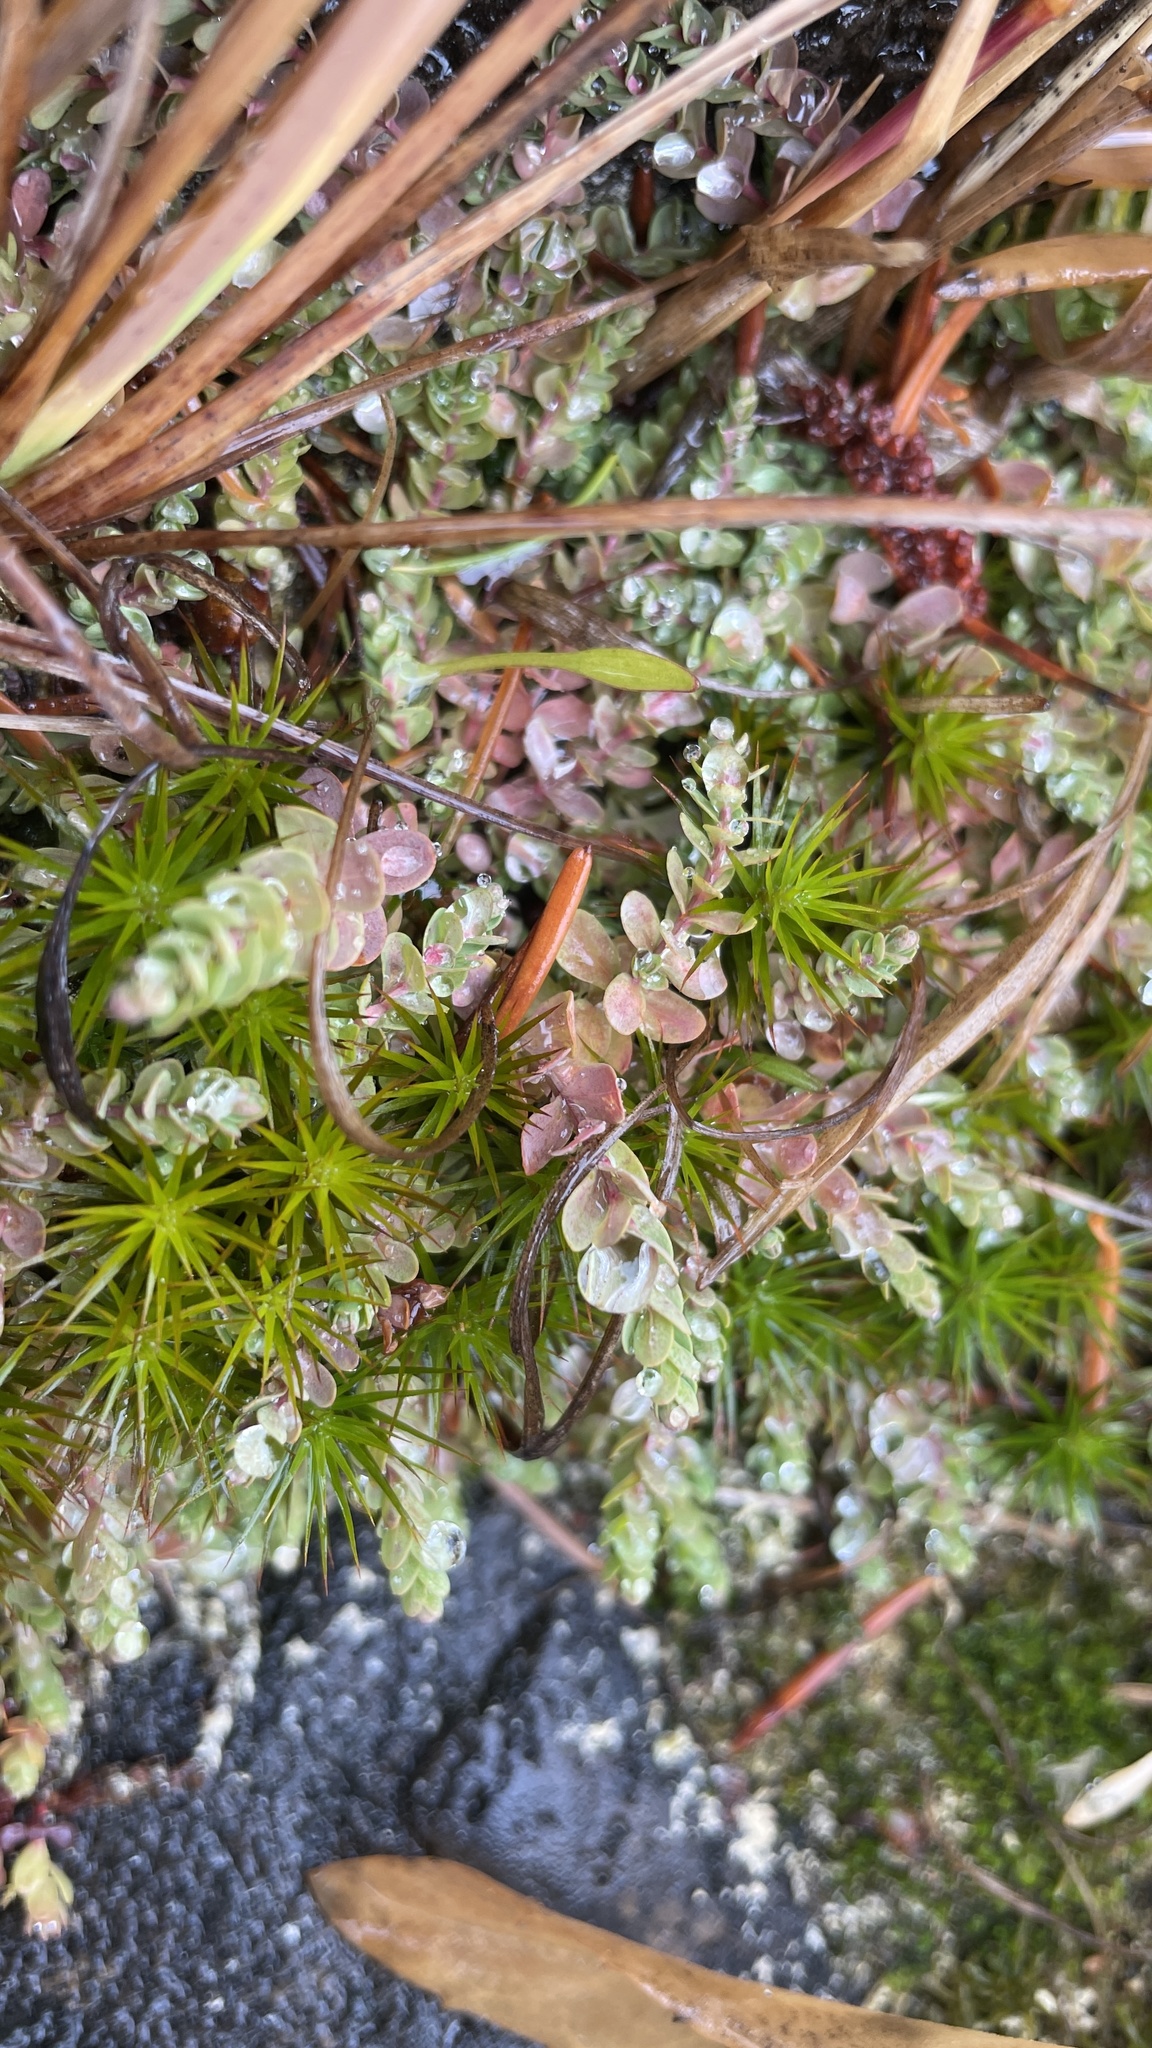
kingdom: Plantae
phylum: Tracheophyta
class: Magnoliopsida
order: Malpighiales
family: Hypericaceae
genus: Hypericum
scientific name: Hypericum anagalloides
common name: Bog st. john's-wort
